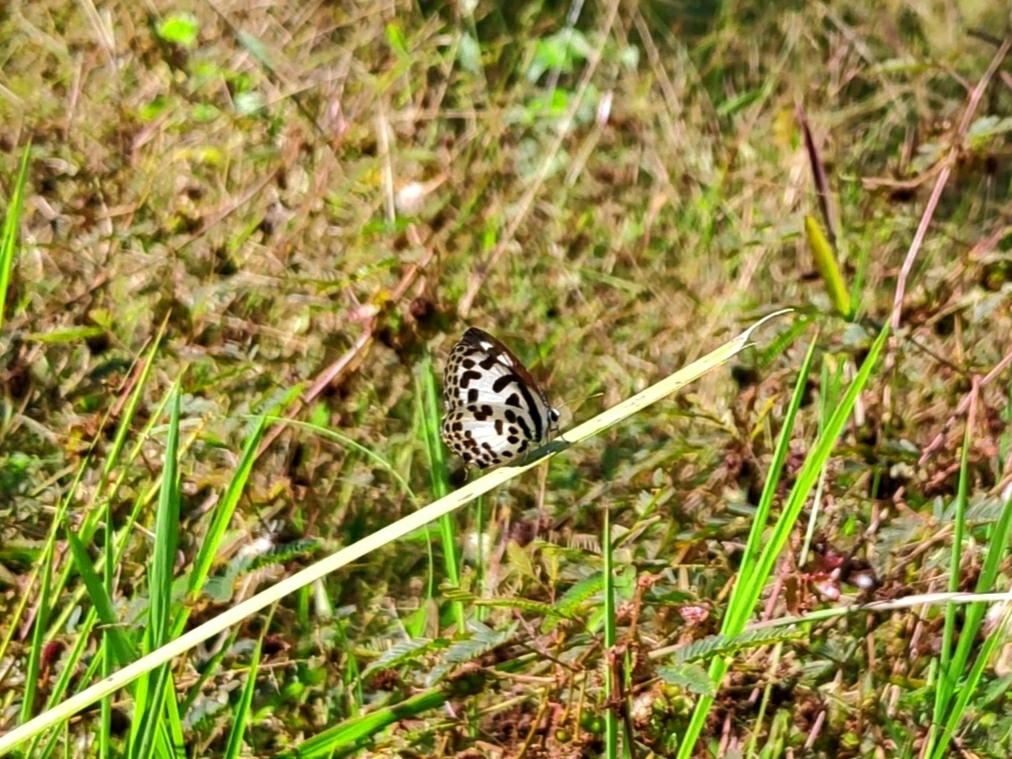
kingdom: Animalia
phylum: Arthropoda
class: Insecta
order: Lepidoptera
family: Lycaenidae
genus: Castalius
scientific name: Castalius rosimon
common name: Common pierrot
